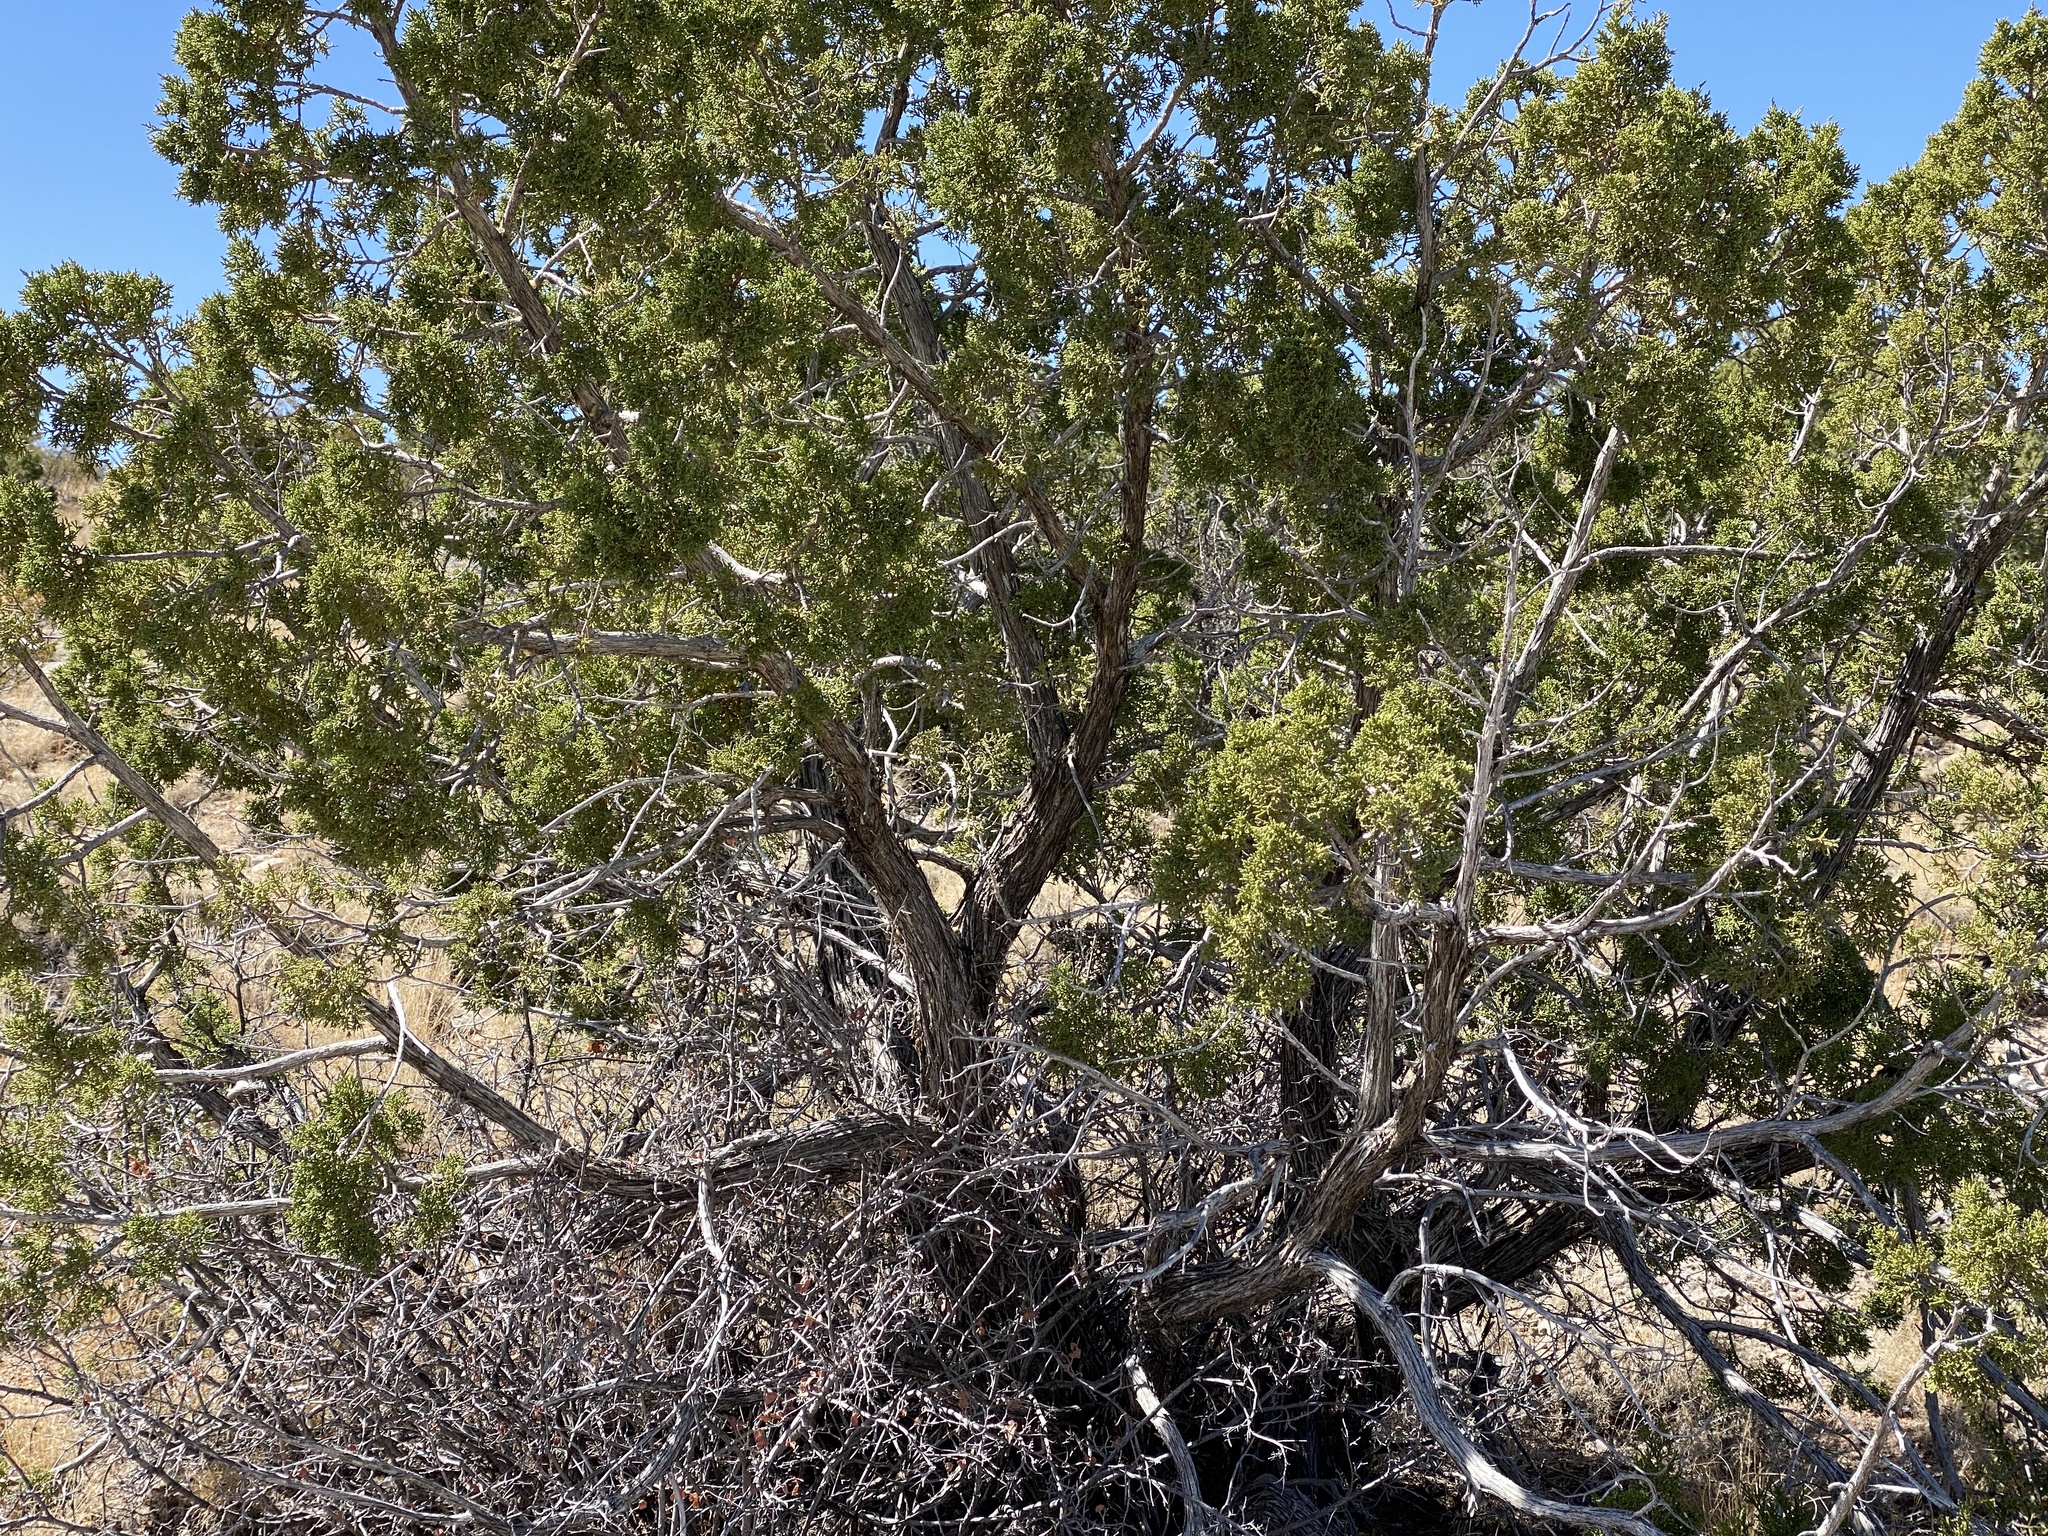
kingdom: Plantae
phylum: Tracheophyta
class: Pinopsida
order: Pinales
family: Cupressaceae
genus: Juniperus
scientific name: Juniperus monosperma
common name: One-seed juniper
